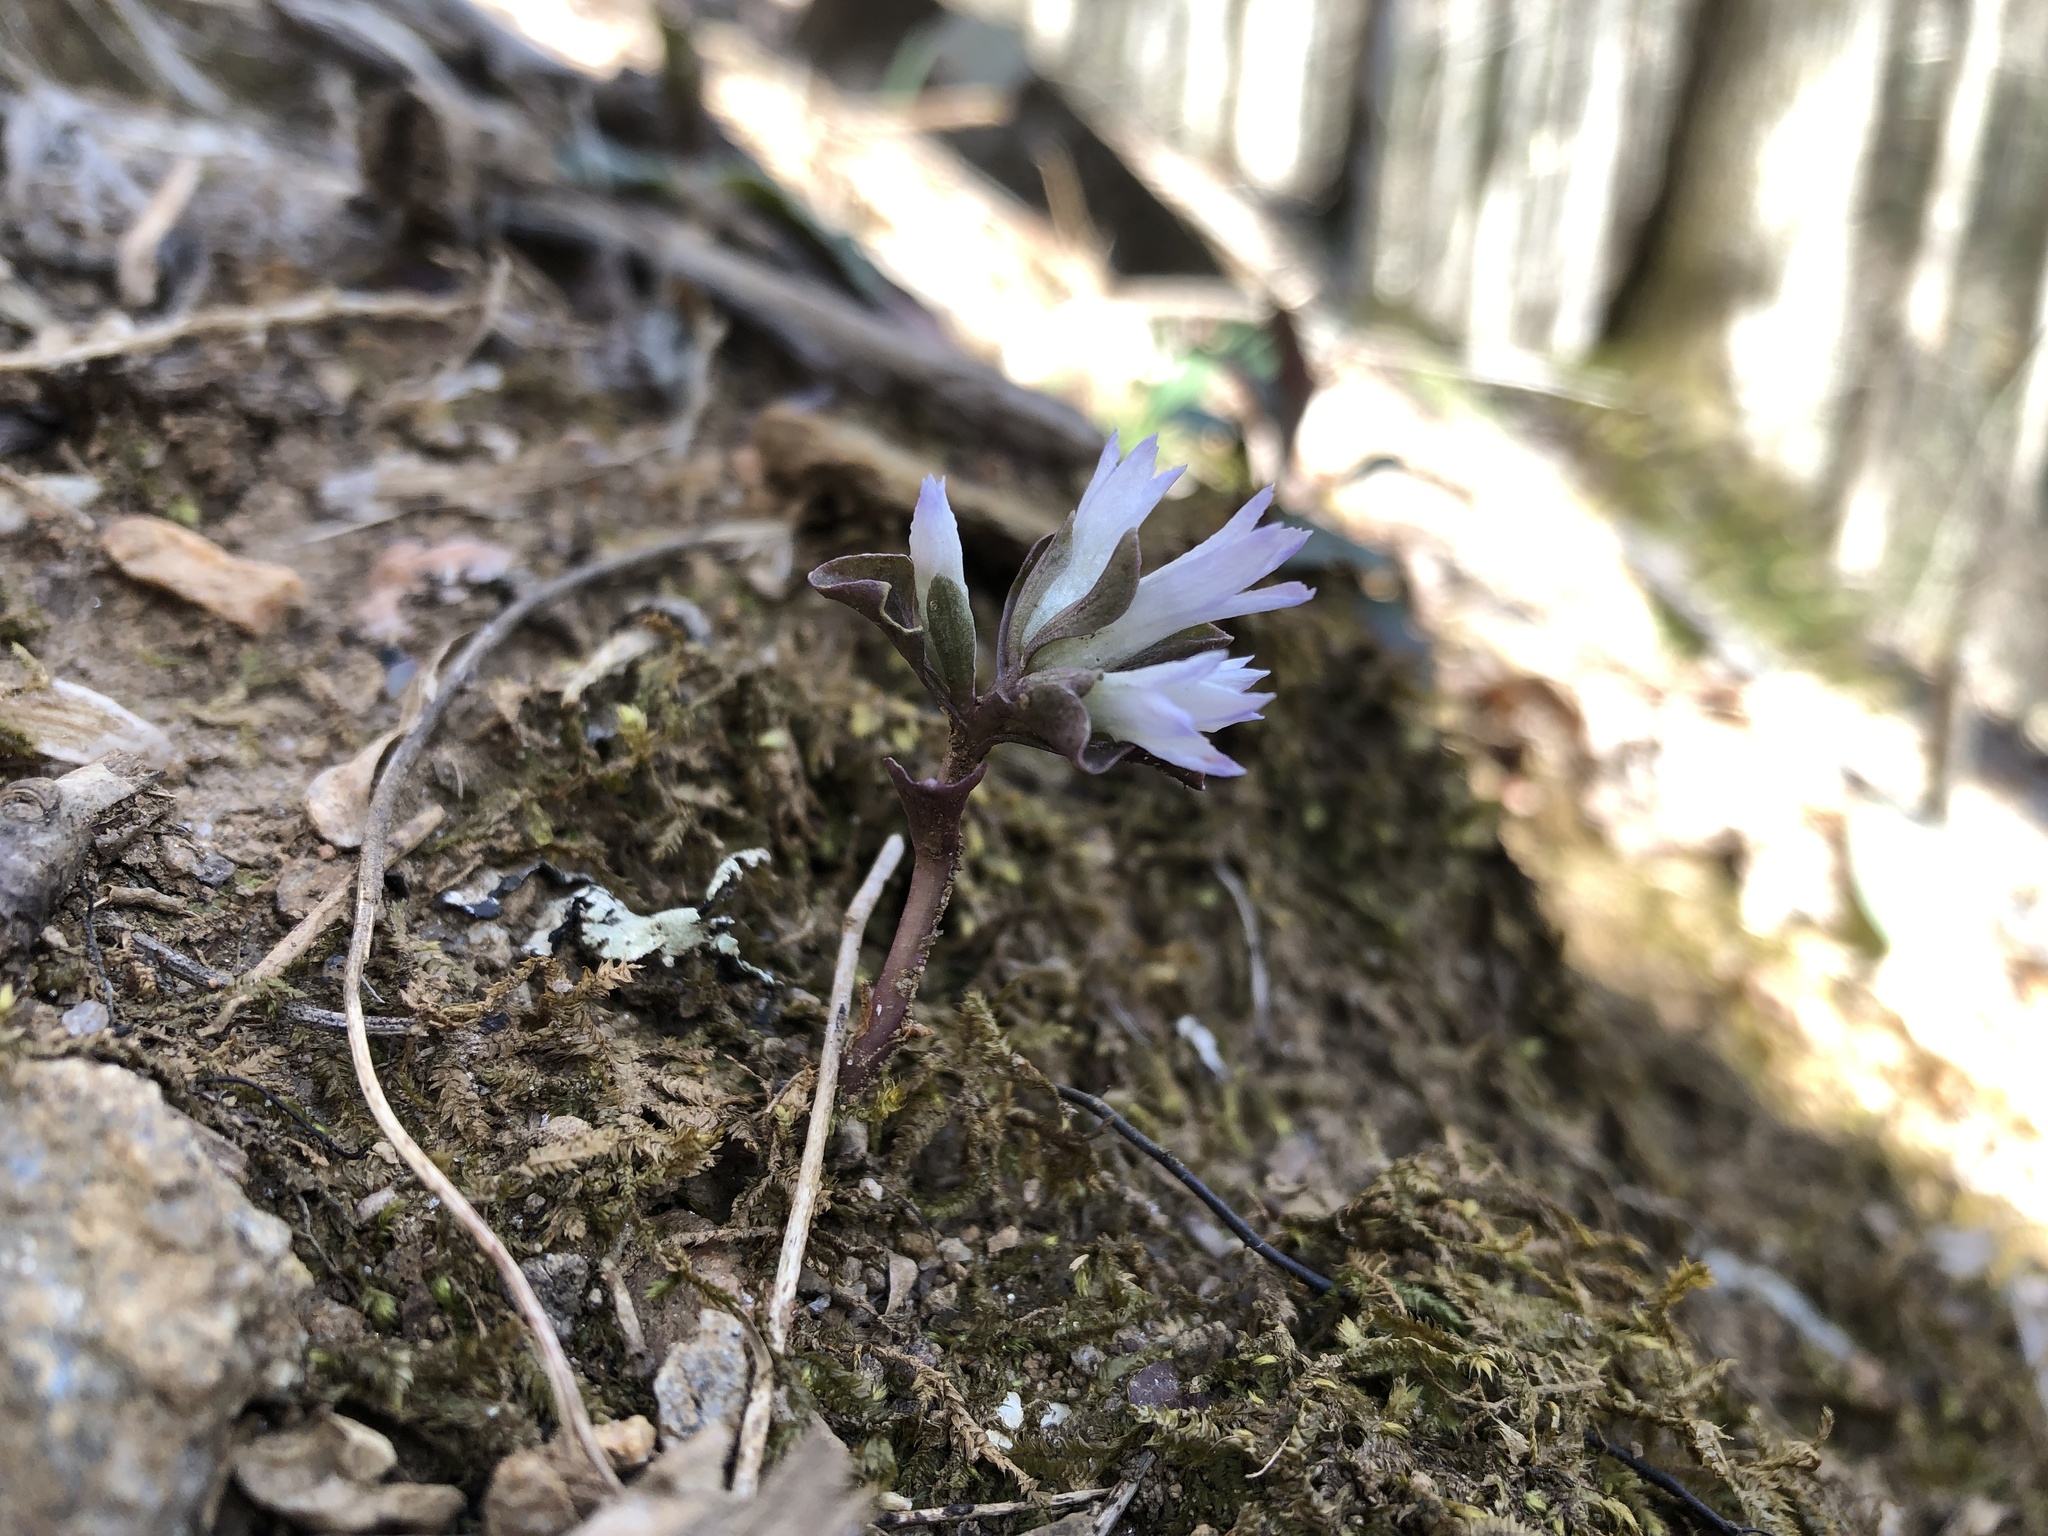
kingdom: Plantae
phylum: Tracheophyta
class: Magnoliopsida
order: Gentianales
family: Gentianaceae
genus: Obolaria
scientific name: Obolaria virginica
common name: Pennywort
